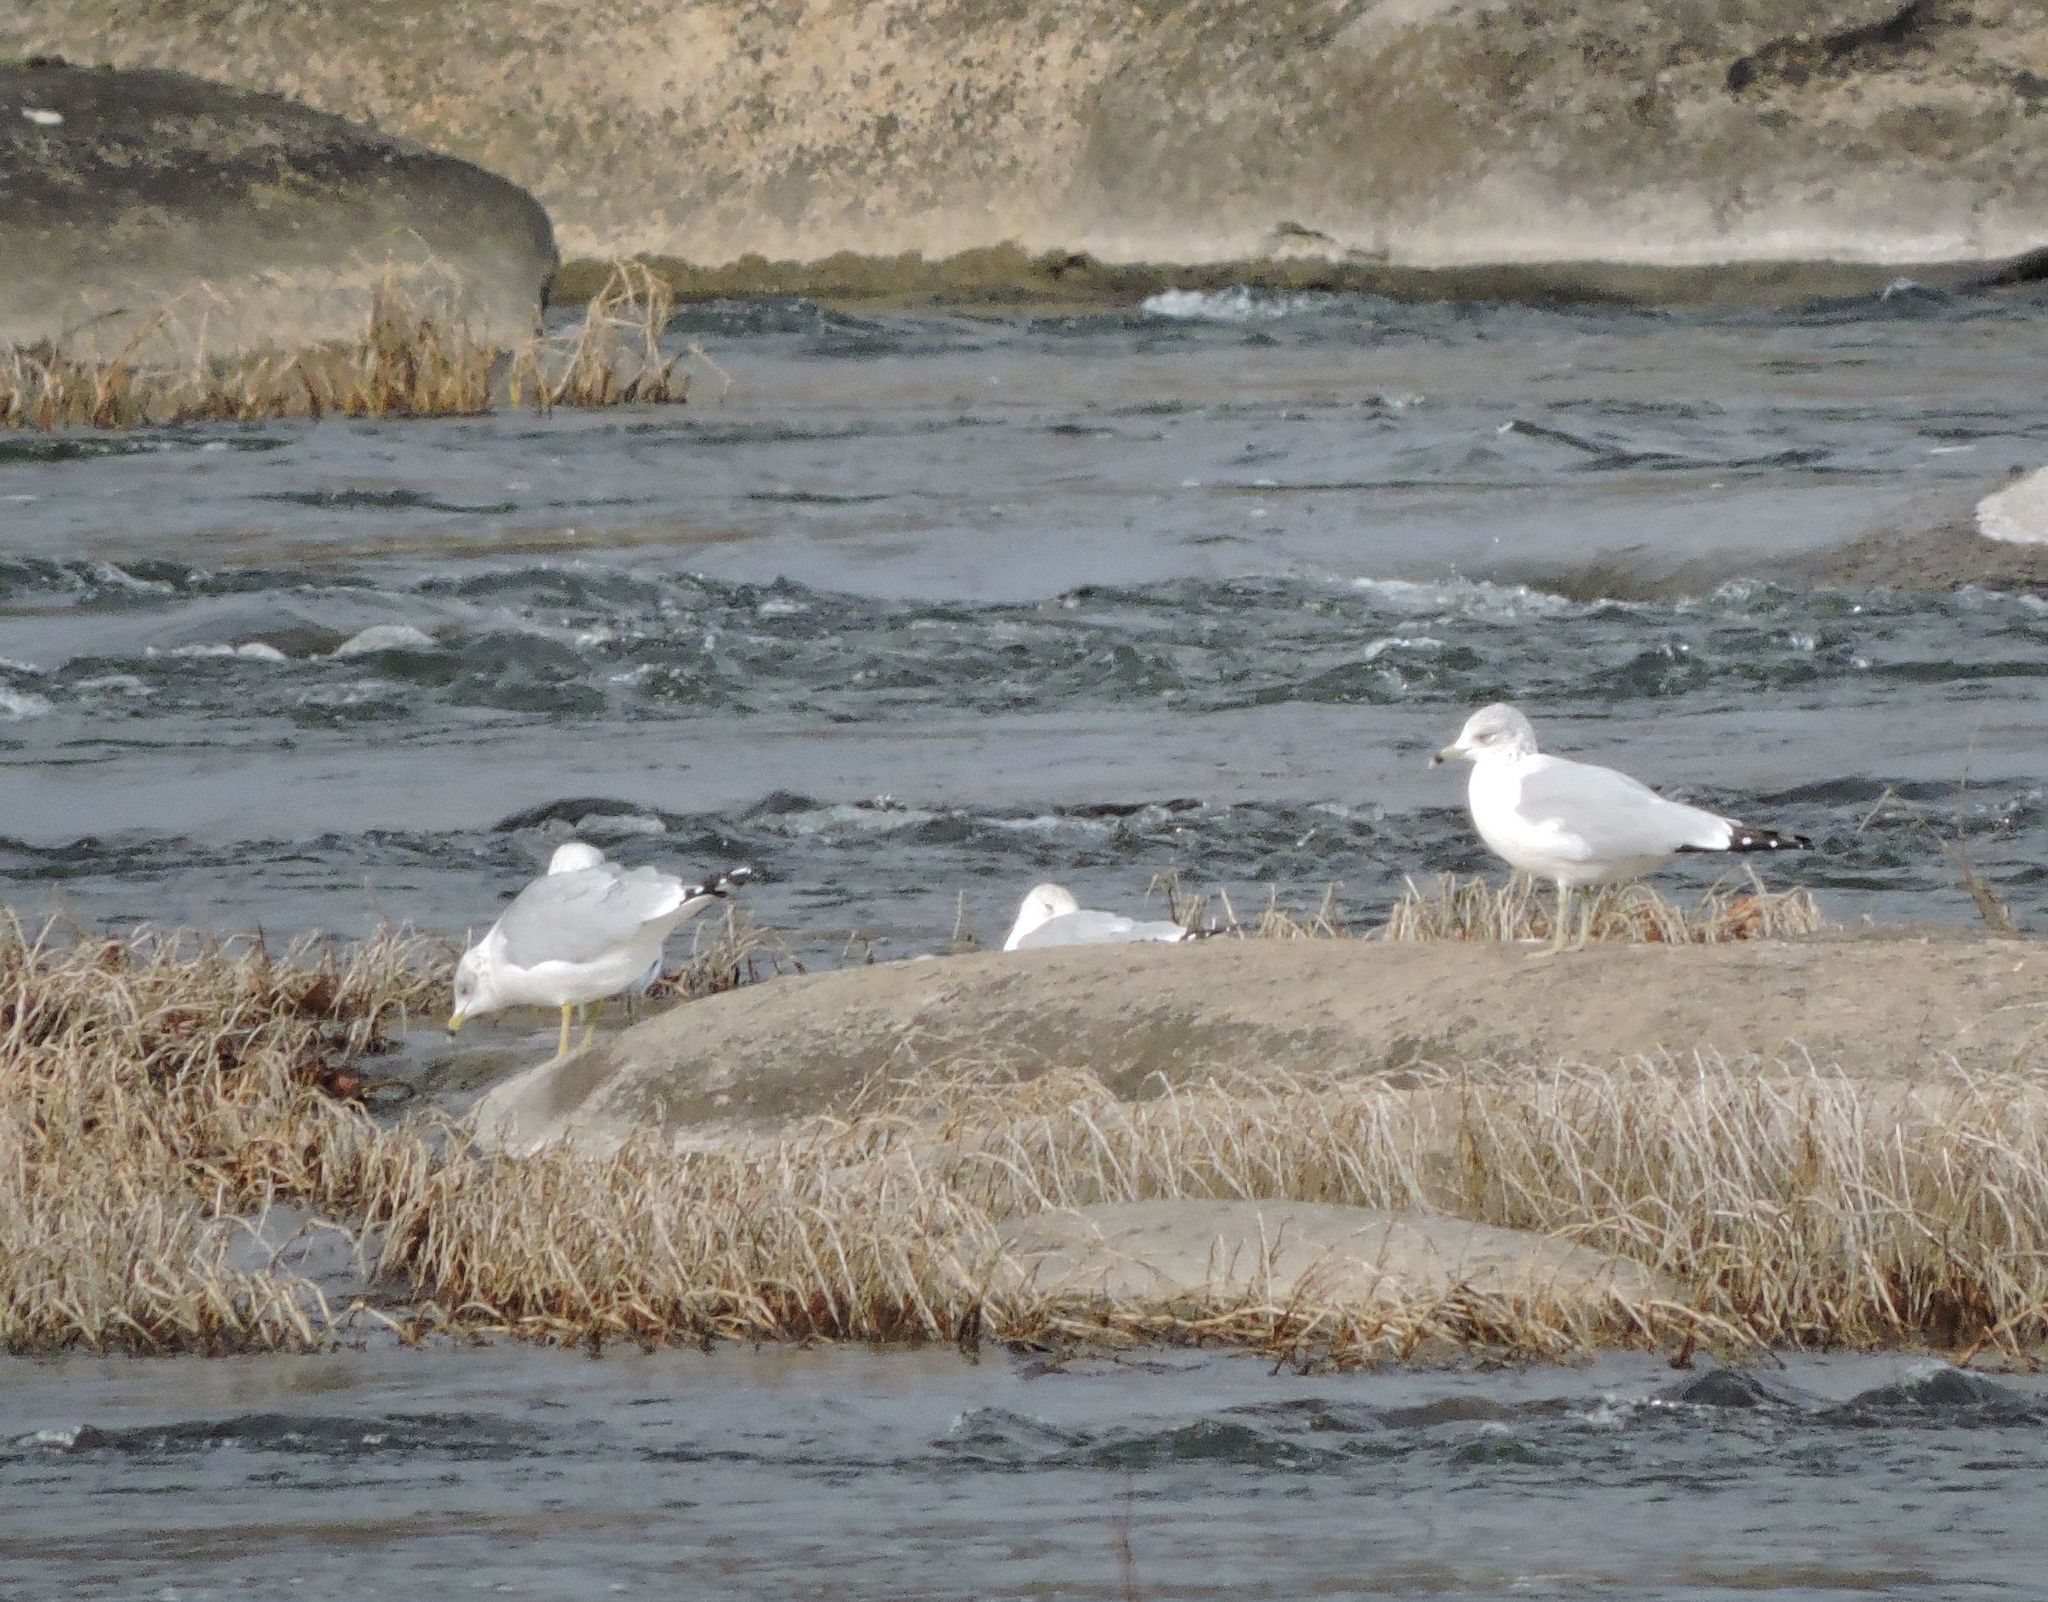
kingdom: Animalia
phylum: Chordata
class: Aves
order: Charadriiformes
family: Laridae
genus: Larus
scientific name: Larus delawarensis
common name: Ring-billed gull
